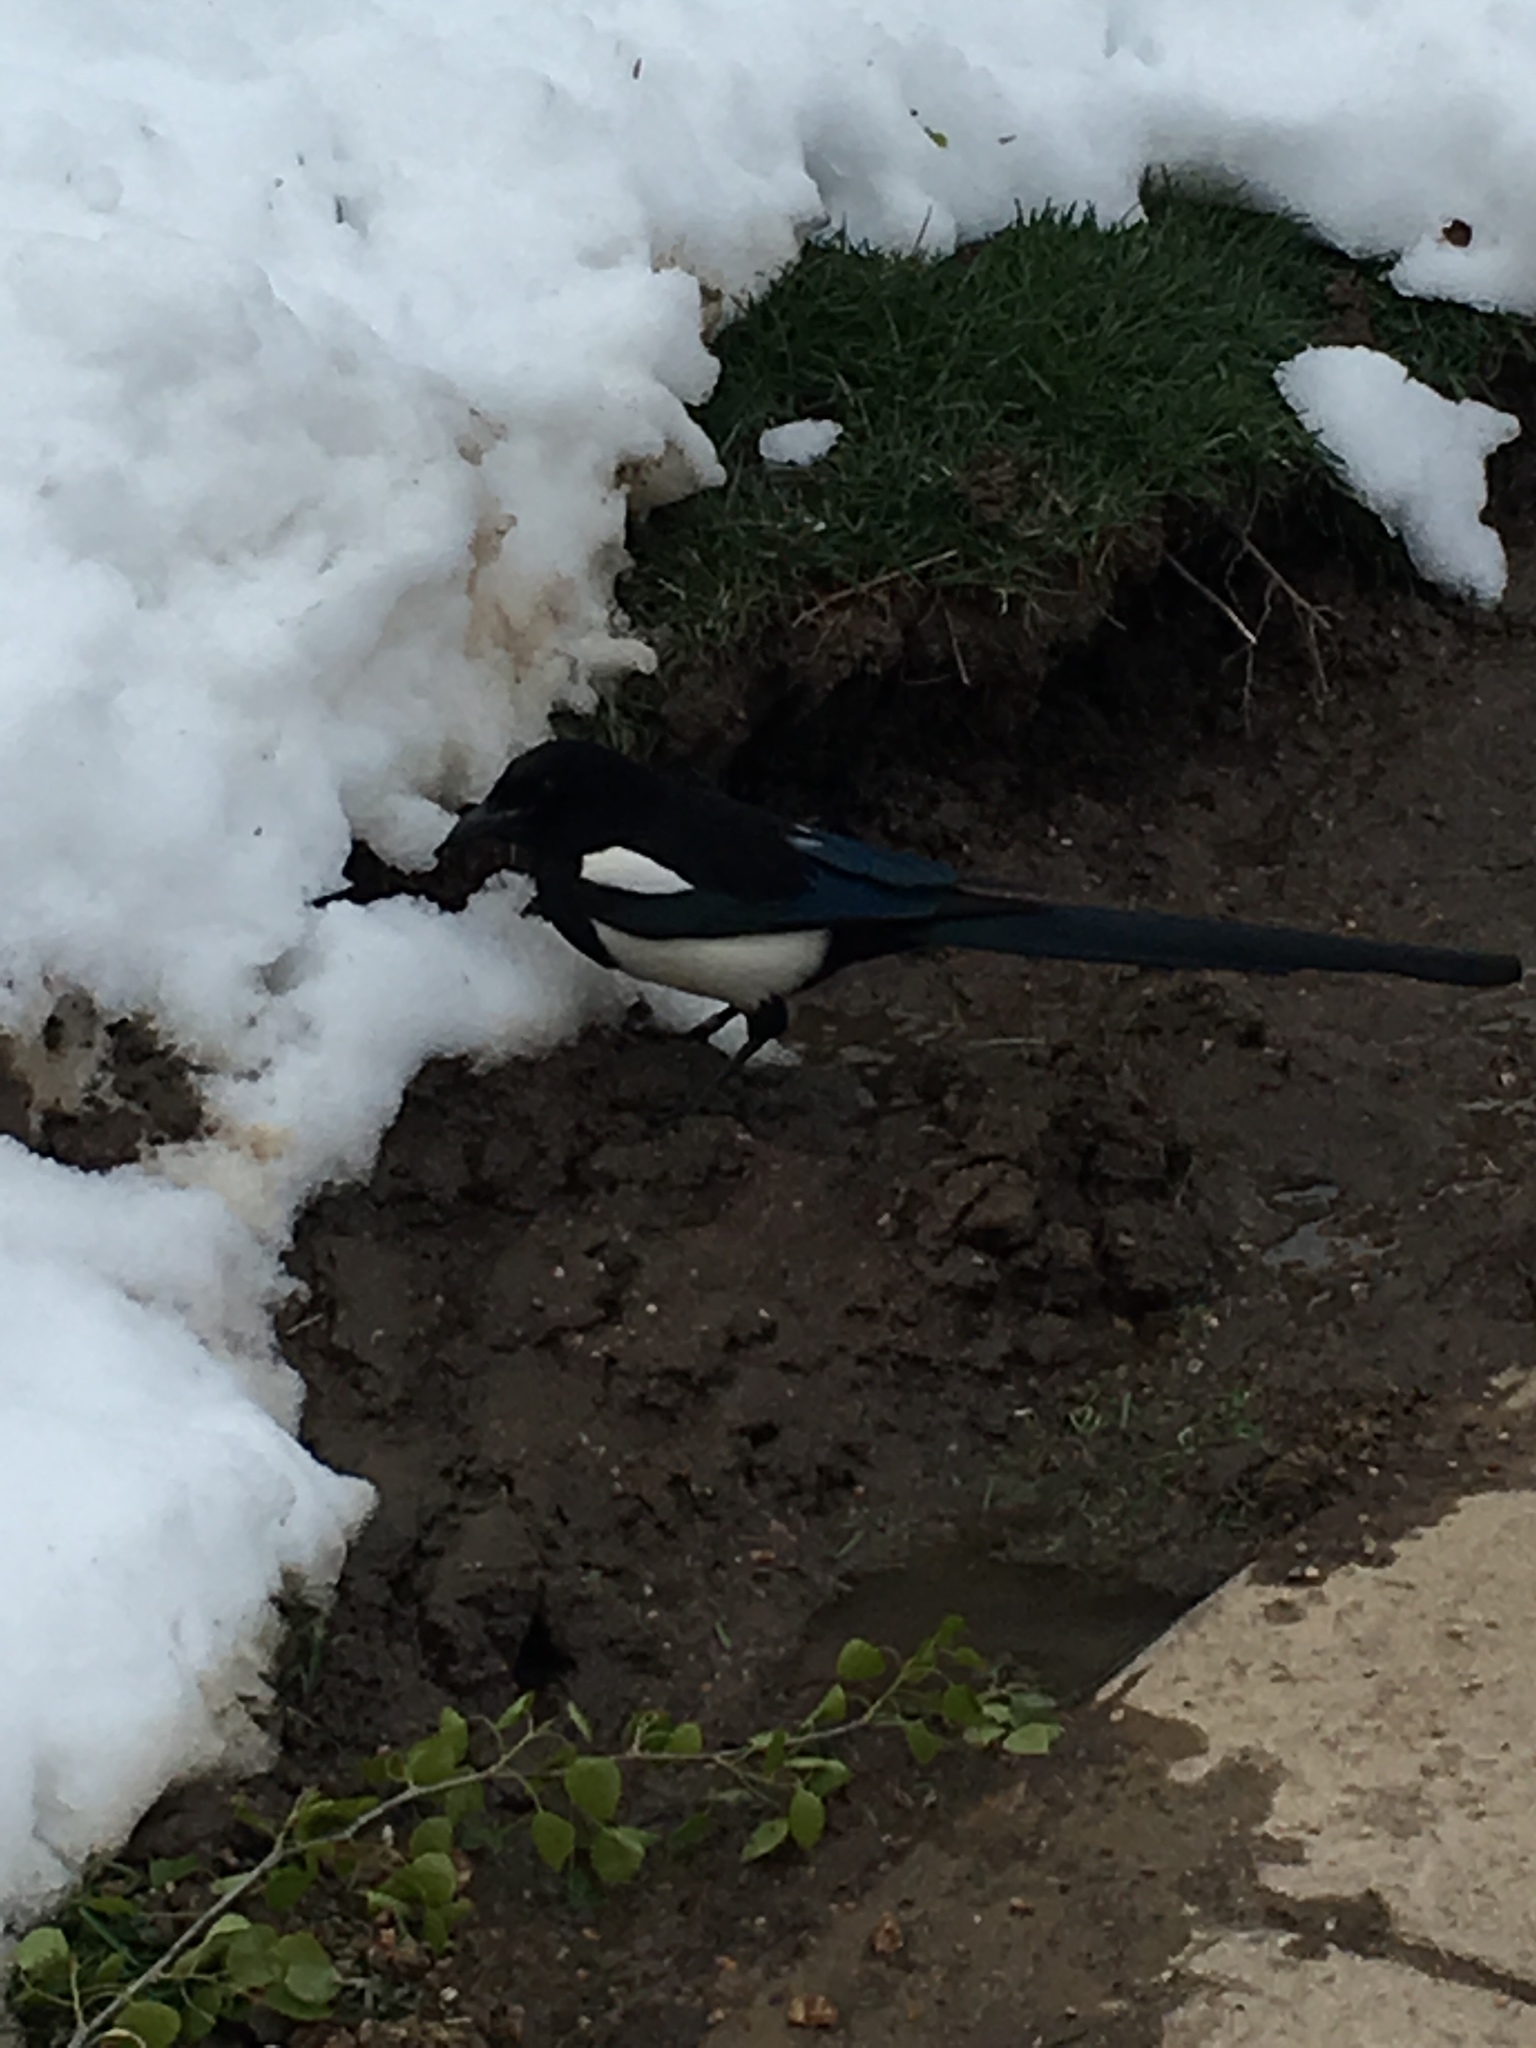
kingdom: Animalia
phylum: Chordata
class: Aves
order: Passeriformes
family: Corvidae
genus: Pica
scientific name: Pica hudsonia
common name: Black-billed magpie
